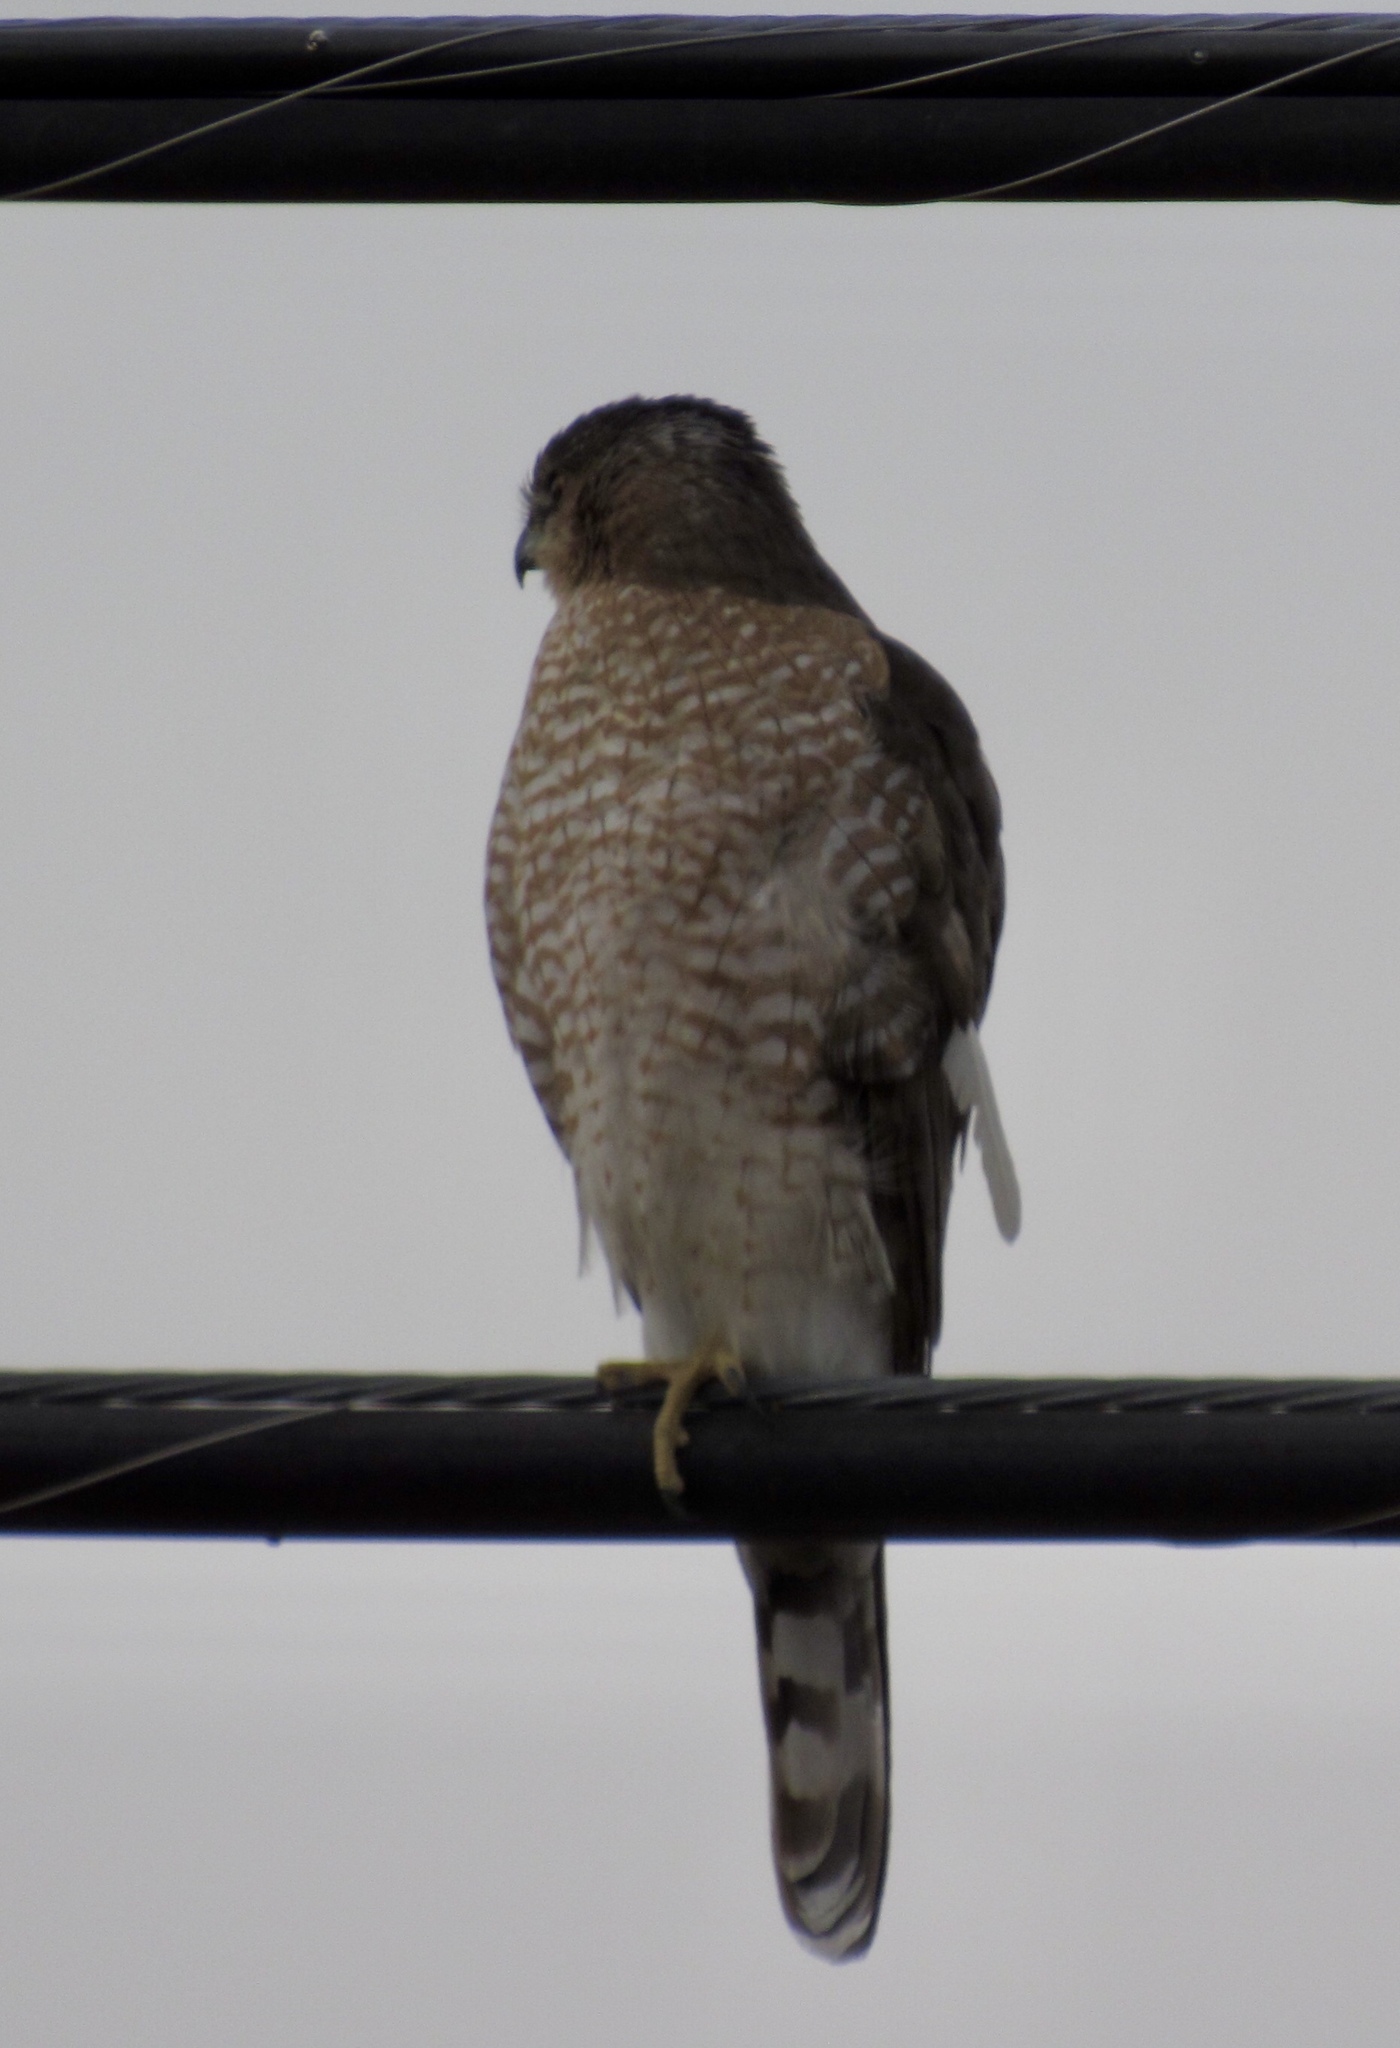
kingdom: Animalia
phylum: Chordata
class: Aves
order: Accipitriformes
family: Accipitridae
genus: Accipiter
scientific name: Accipiter cooperii
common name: Cooper's hawk
